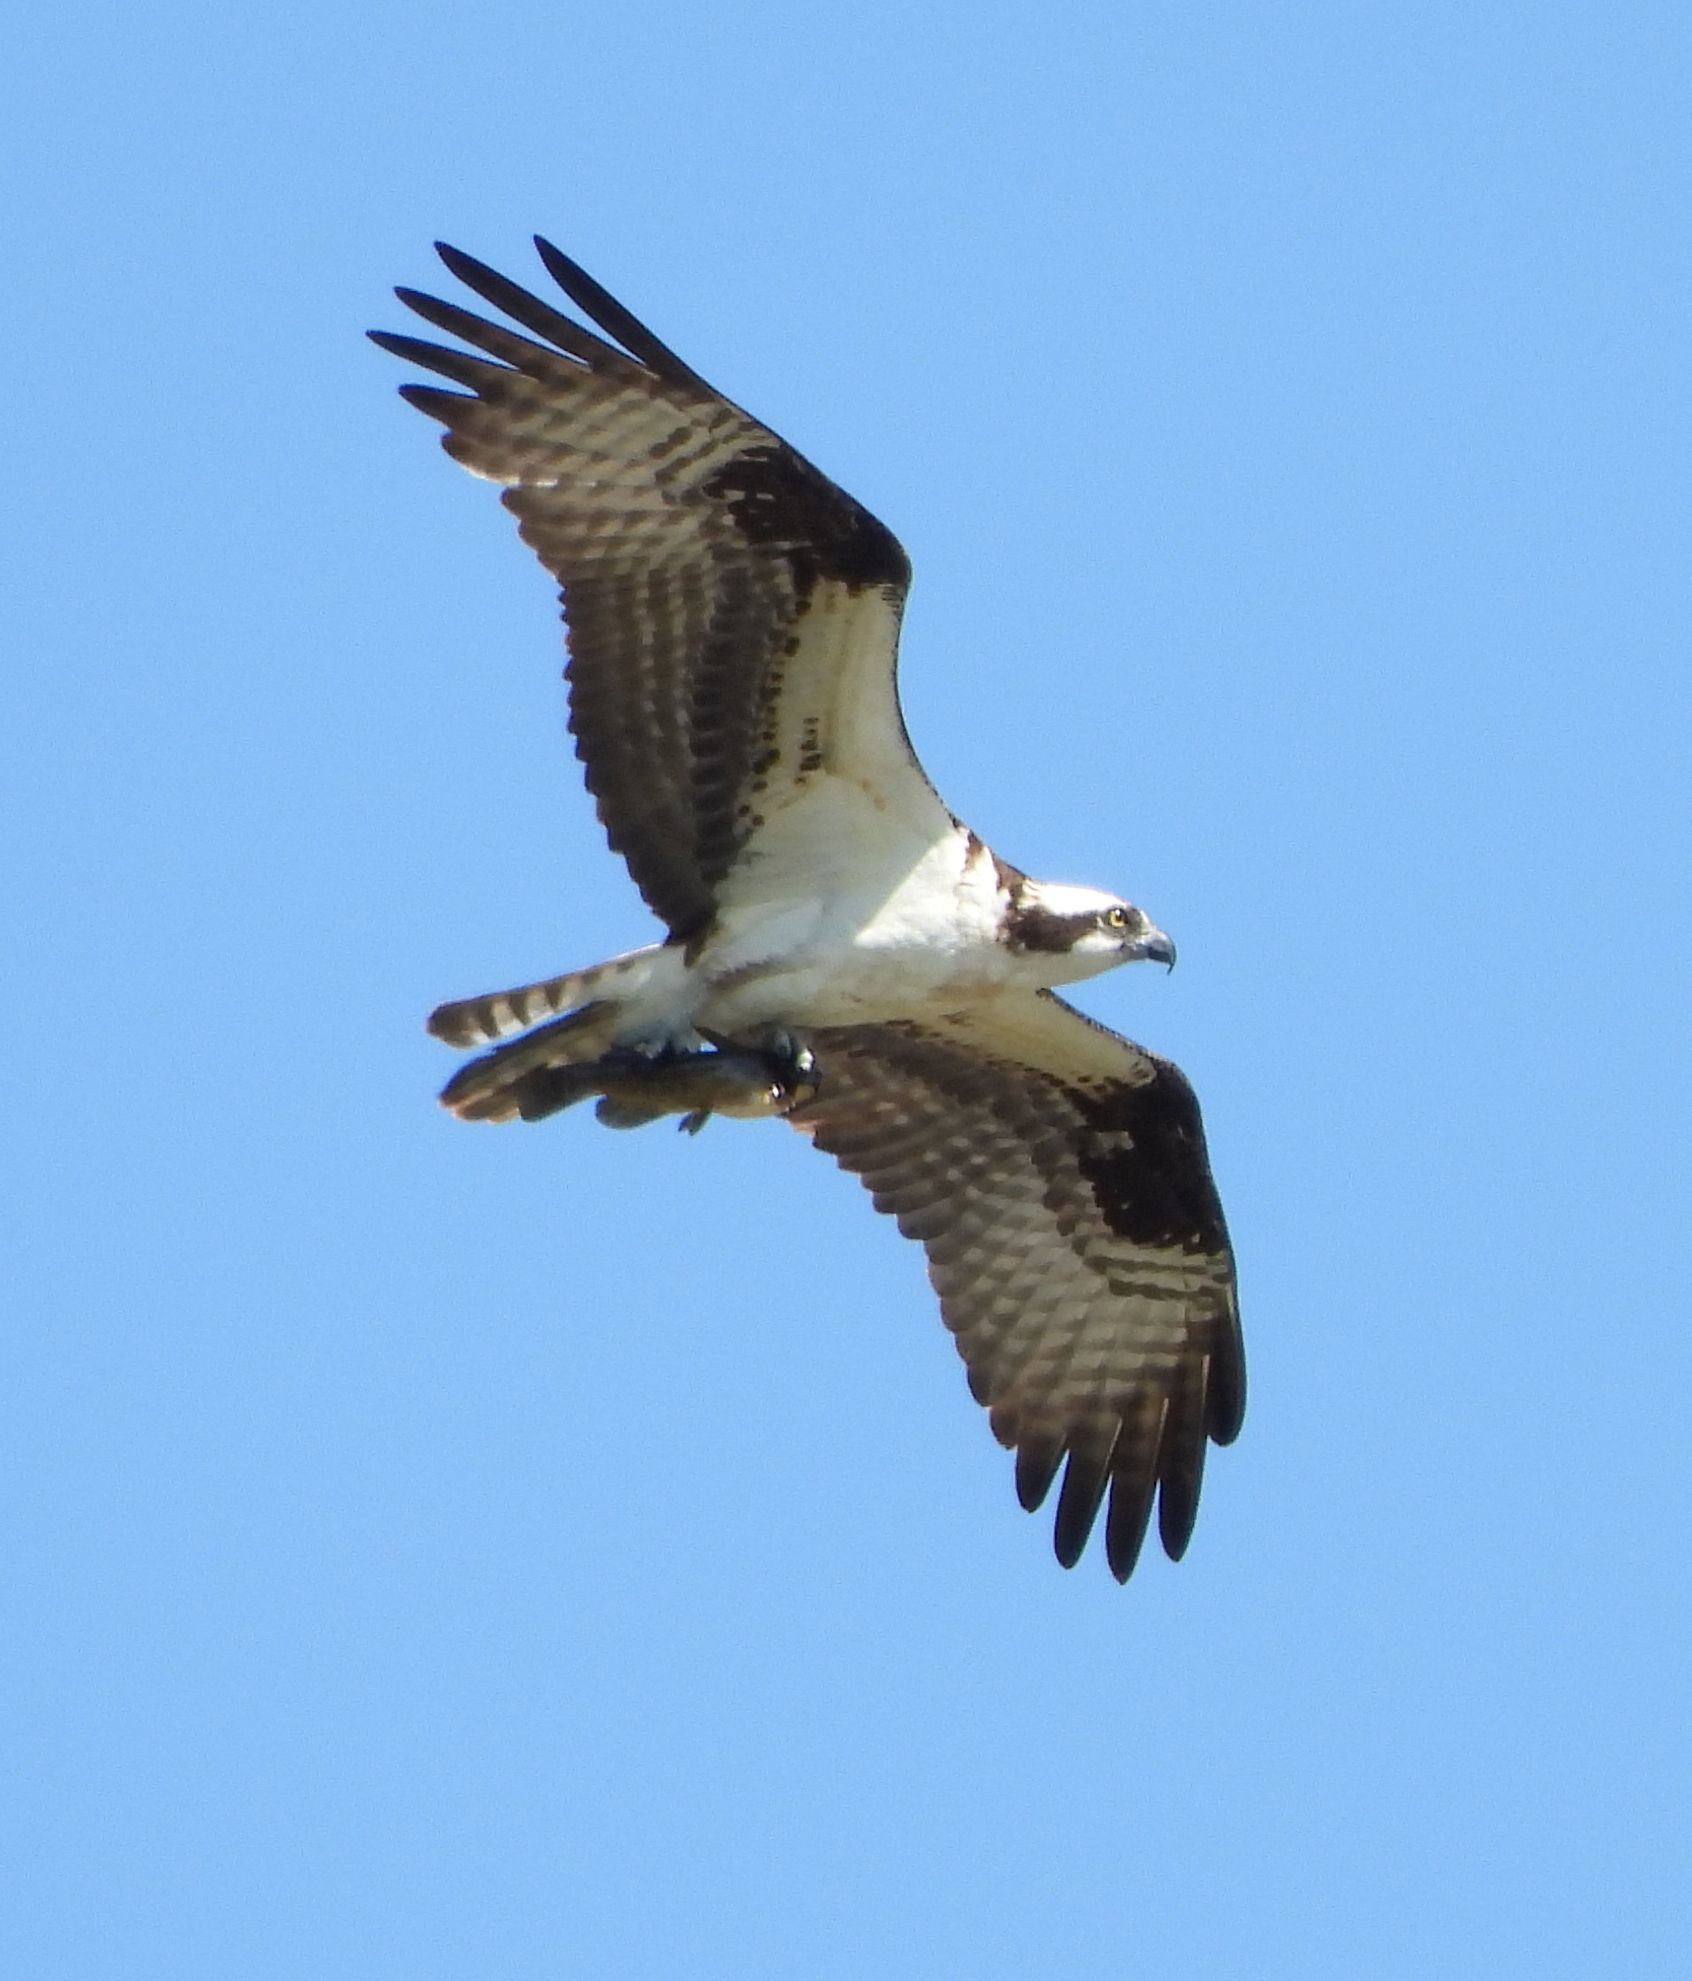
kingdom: Animalia
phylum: Chordata
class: Aves
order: Accipitriformes
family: Pandionidae
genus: Pandion
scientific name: Pandion haliaetus
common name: Osprey
